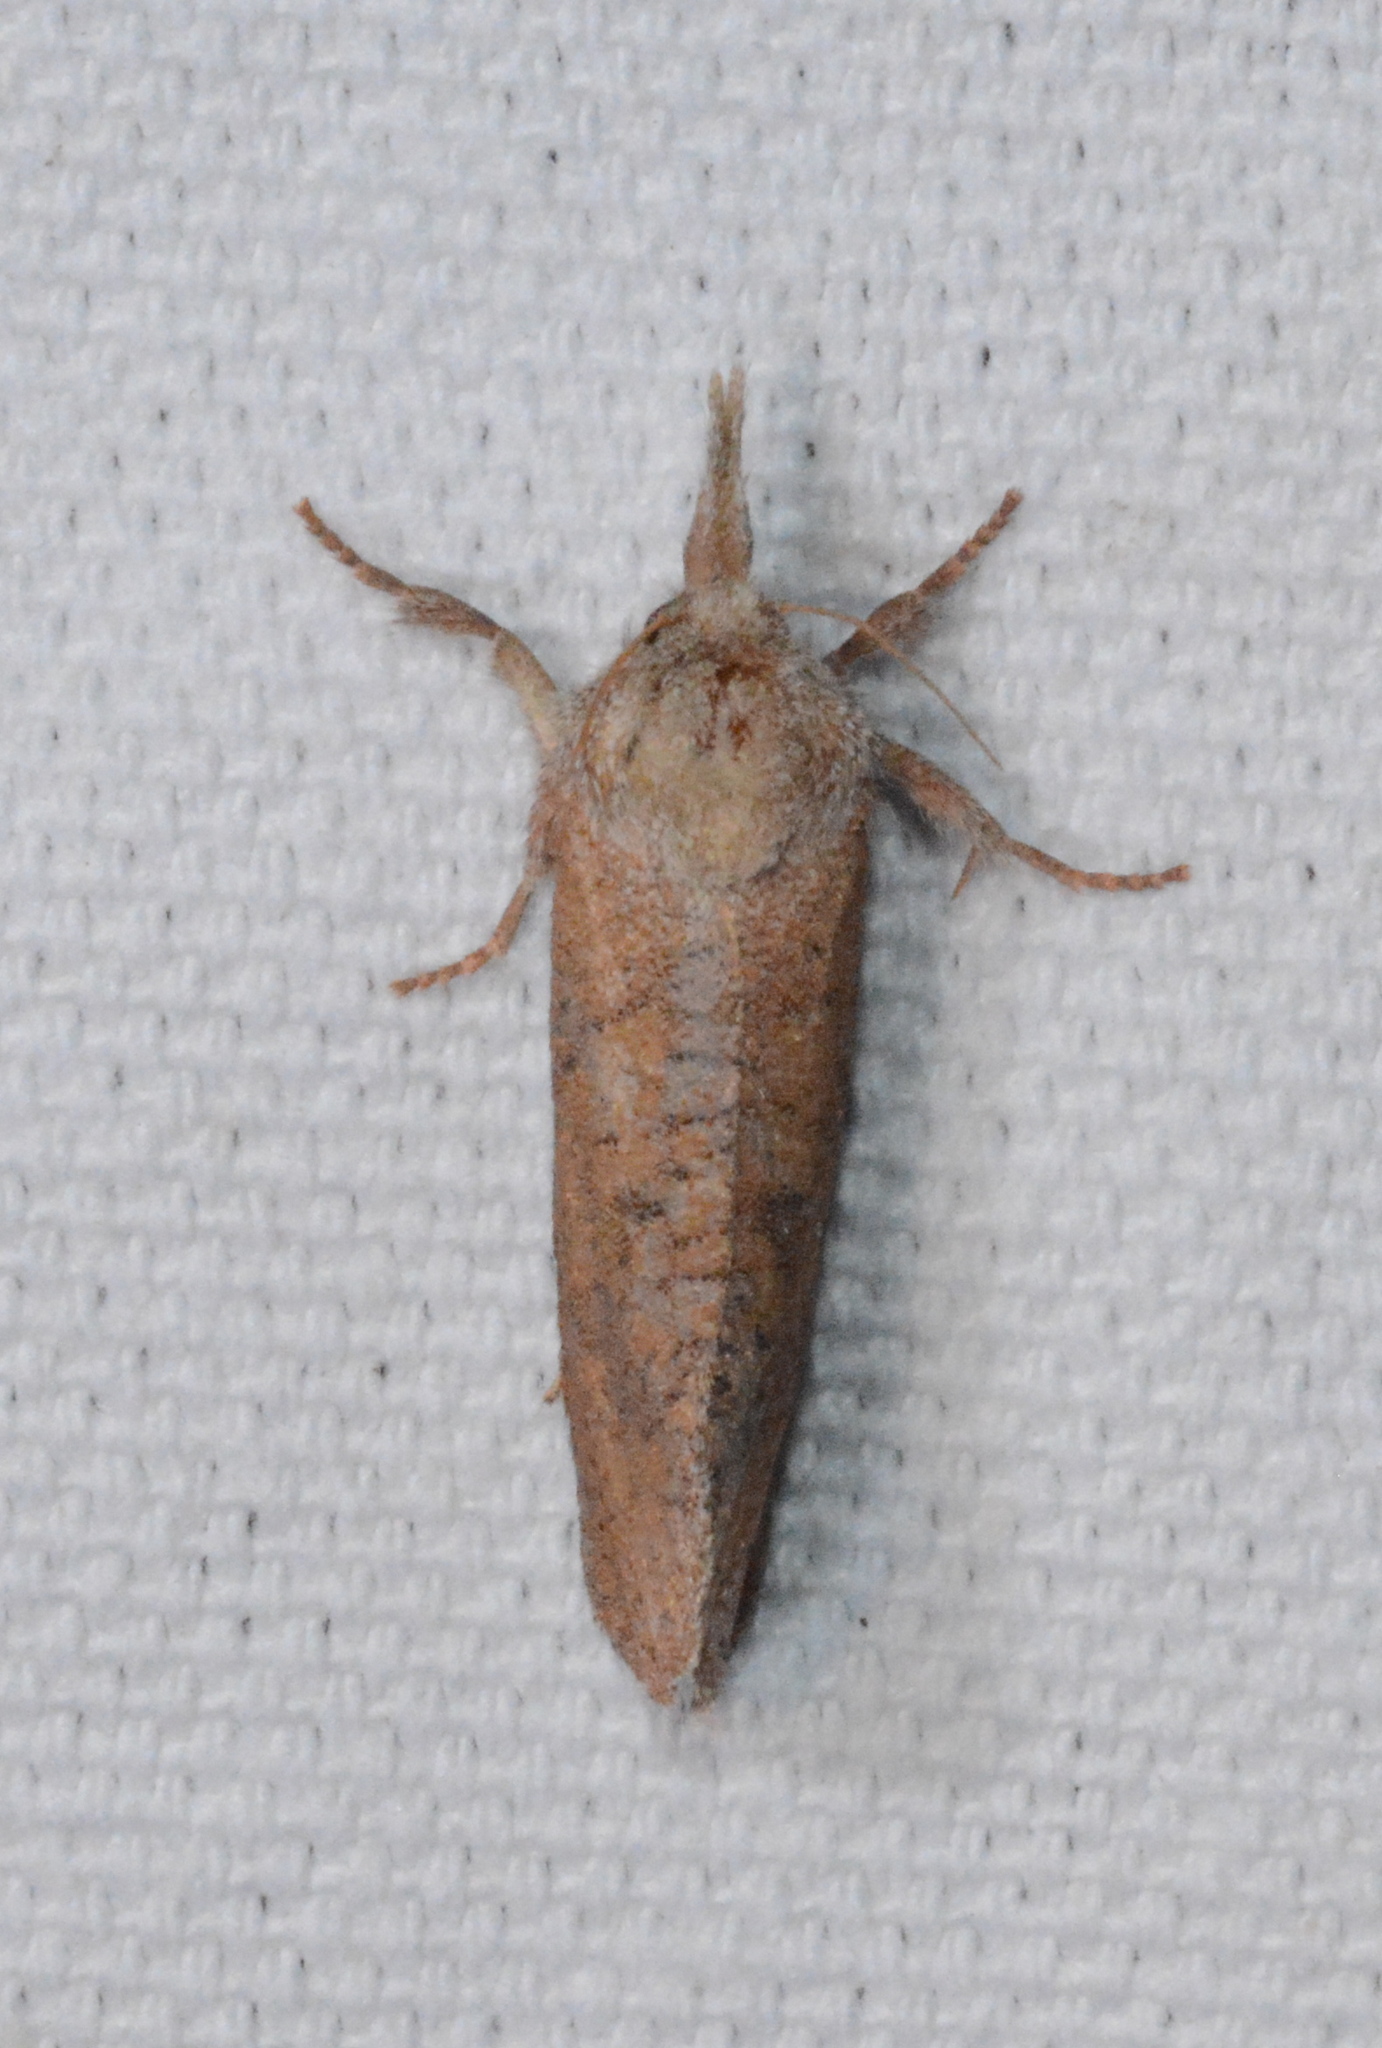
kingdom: Animalia
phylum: Arthropoda
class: Insecta
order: Lepidoptera
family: Tineidae
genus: Acrolophus
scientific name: Acrolophus plumifrontella
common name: Eastern grass tubeworm moth
